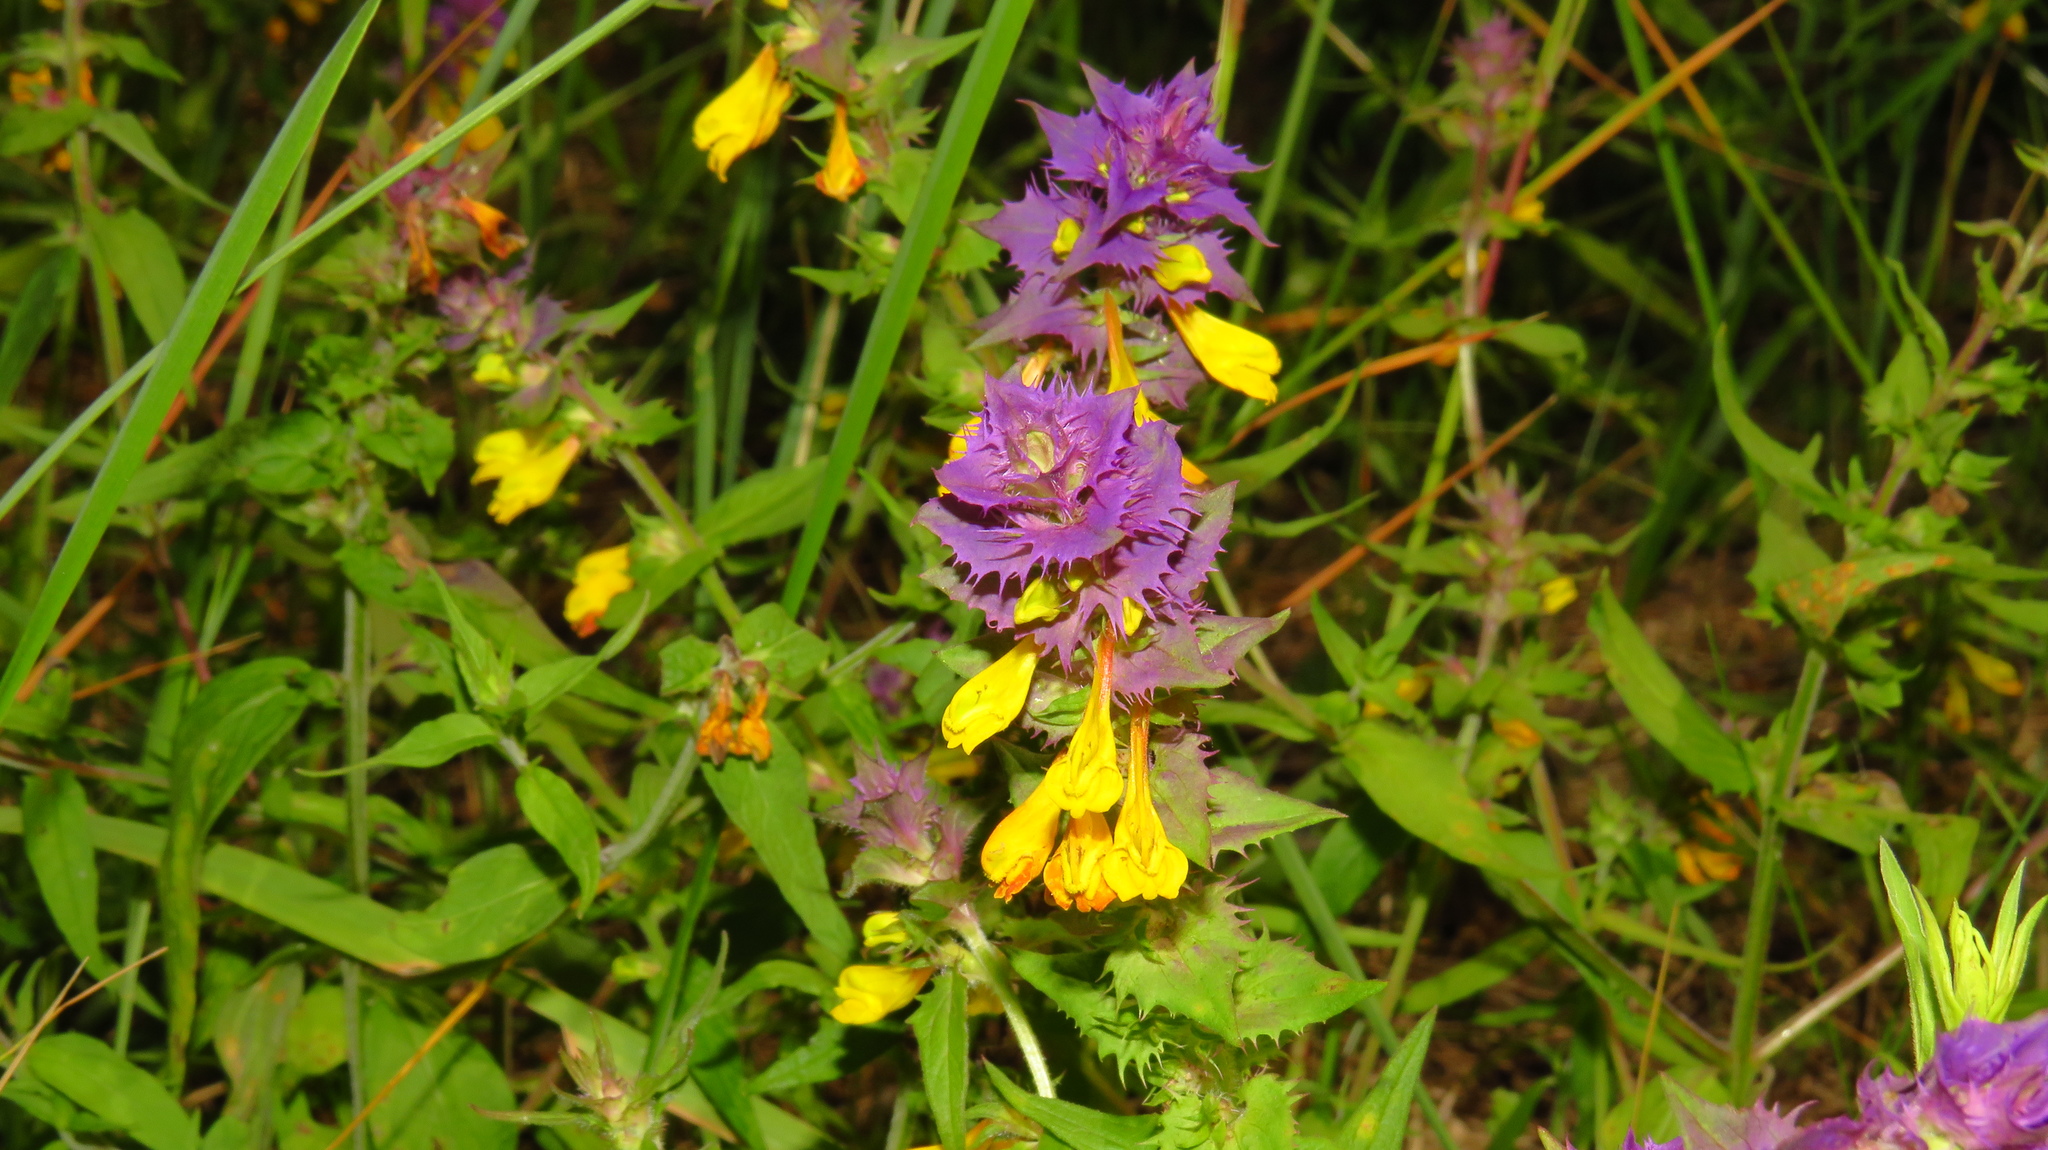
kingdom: Plantae
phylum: Tracheophyta
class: Magnoliopsida
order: Lamiales
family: Orobanchaceae
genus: Melampyrum
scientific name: Melampyrum nemorosum
